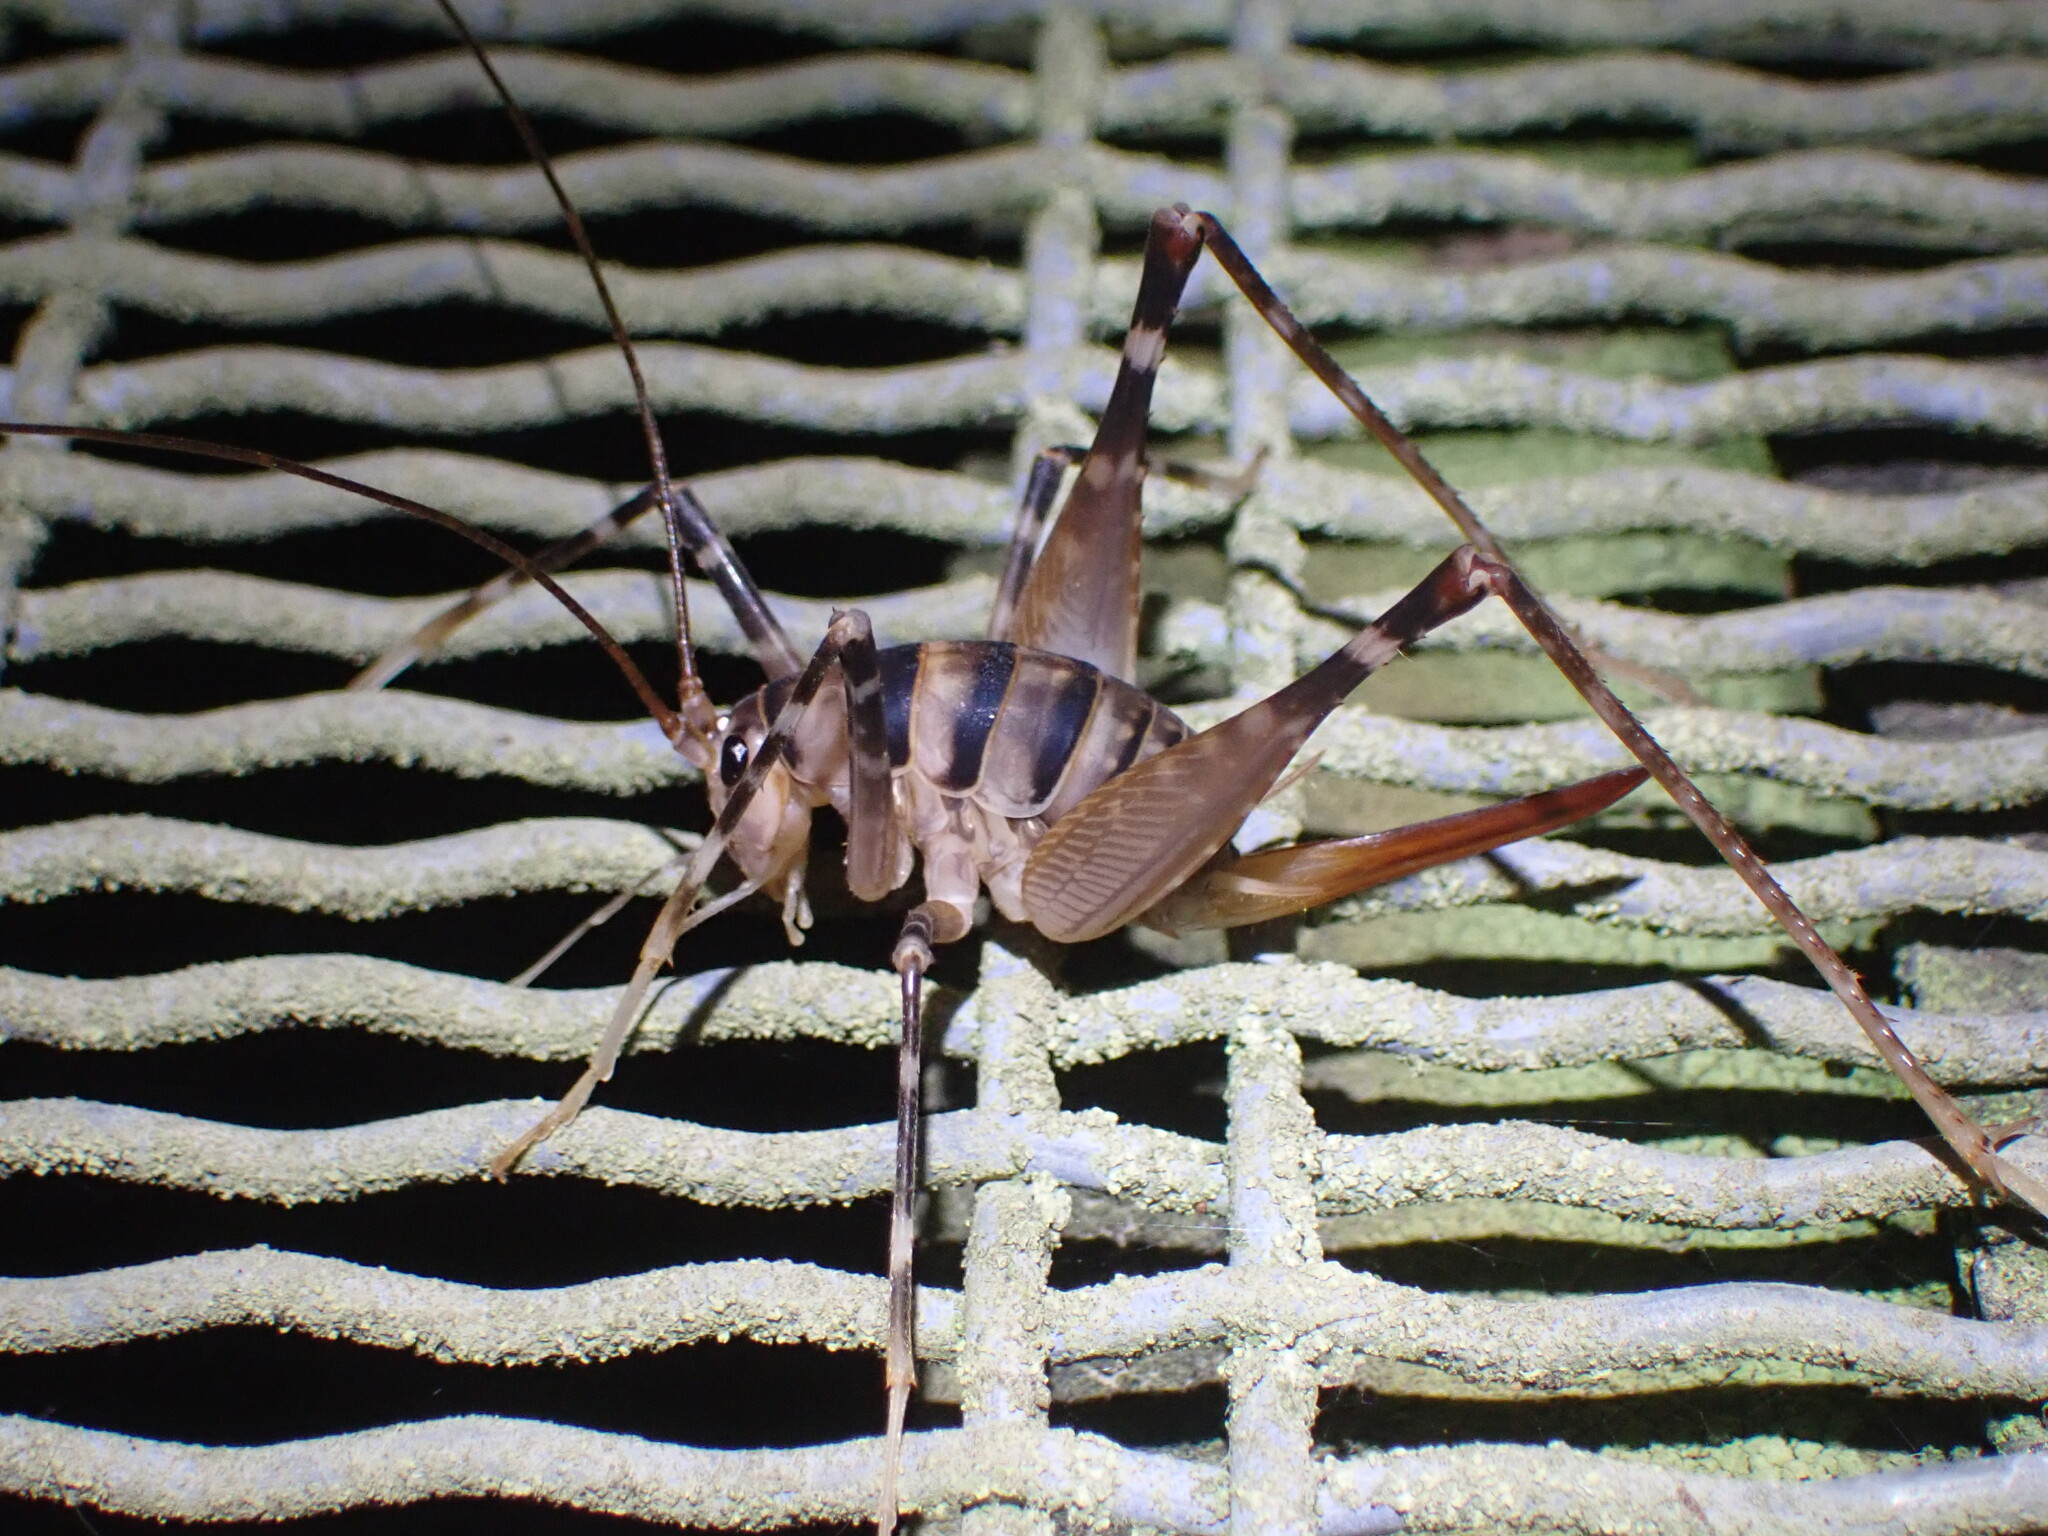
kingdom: Animalia
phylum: Arthropoda
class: Insecta
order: Orthoptera
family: Rhaphidophoridae
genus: Pachyrhamma
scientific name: Pachyrhamma edwardsii
